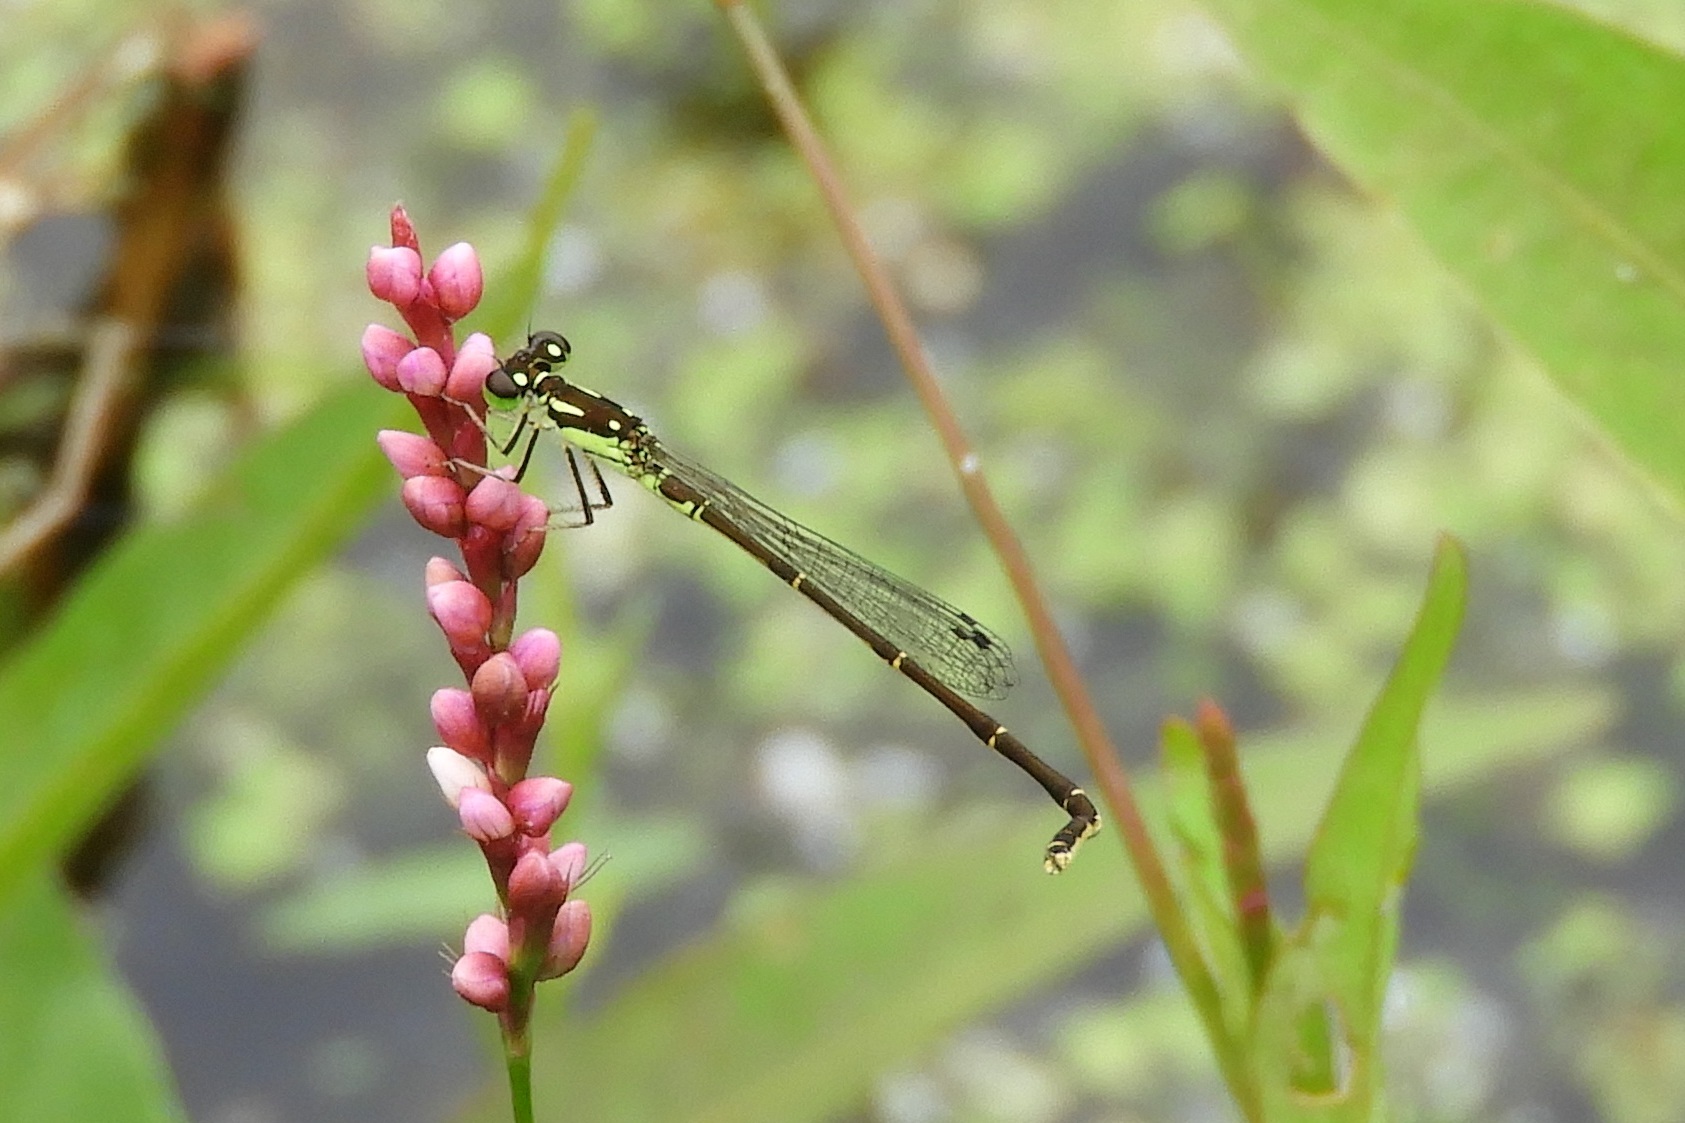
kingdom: Animalia
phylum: Arthropoda
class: Insecta
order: Odonata
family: Coenagrionidae
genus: Ischnura
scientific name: Ischnura posita
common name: Fragile forktail
